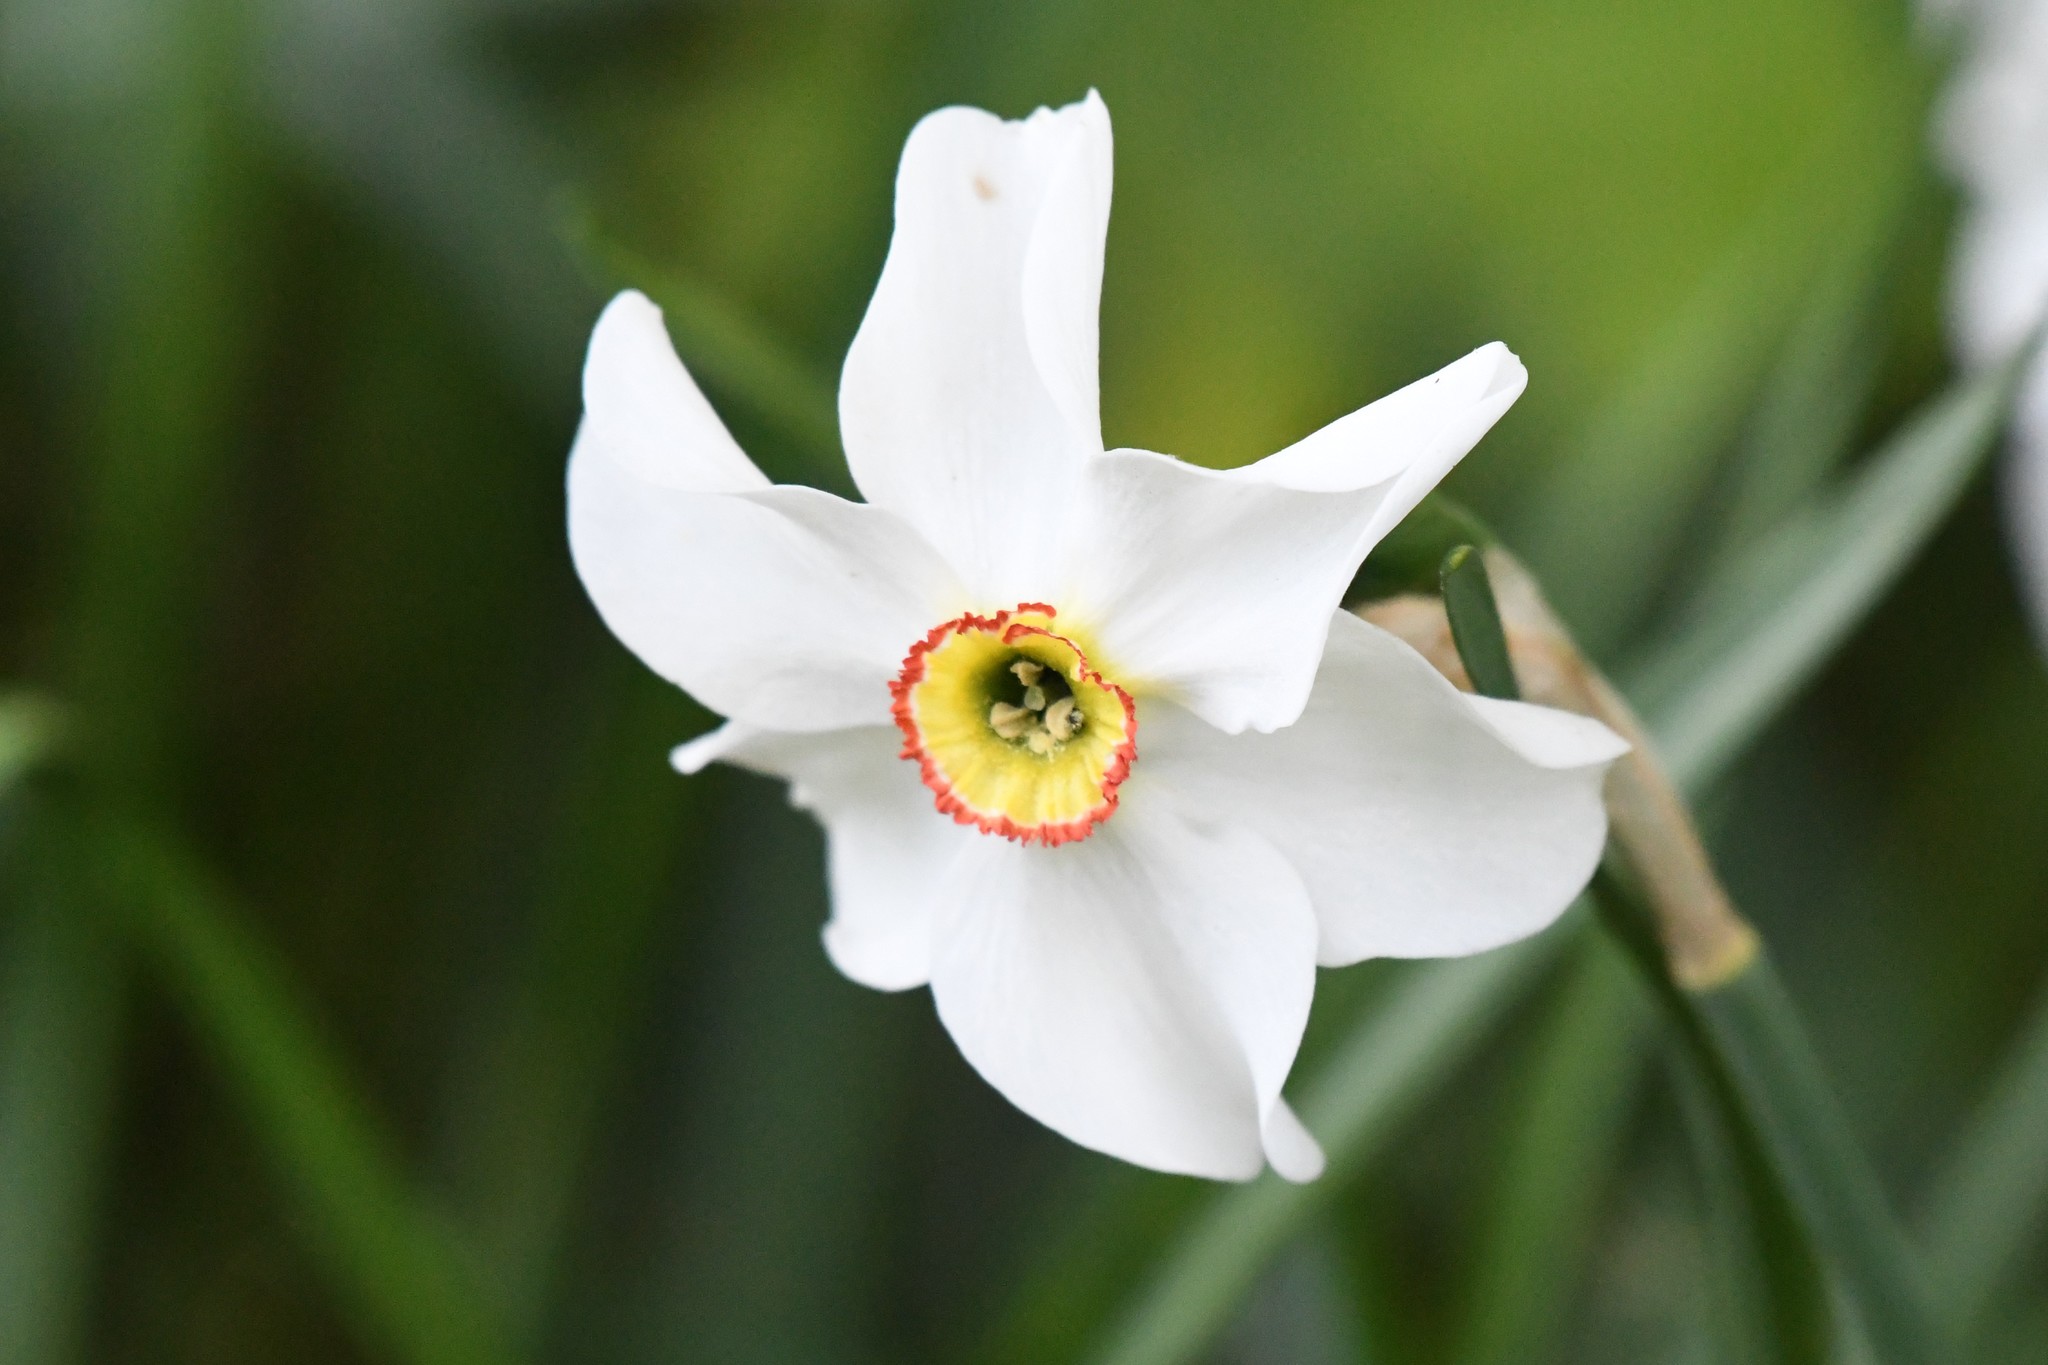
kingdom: Plantae
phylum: Tracheophyta
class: Liliopsida
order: Asparagales
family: Amaryllidaceae
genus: Narcissus
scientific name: Narcissus poeticus
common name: Pheasant's-eye daffodil
